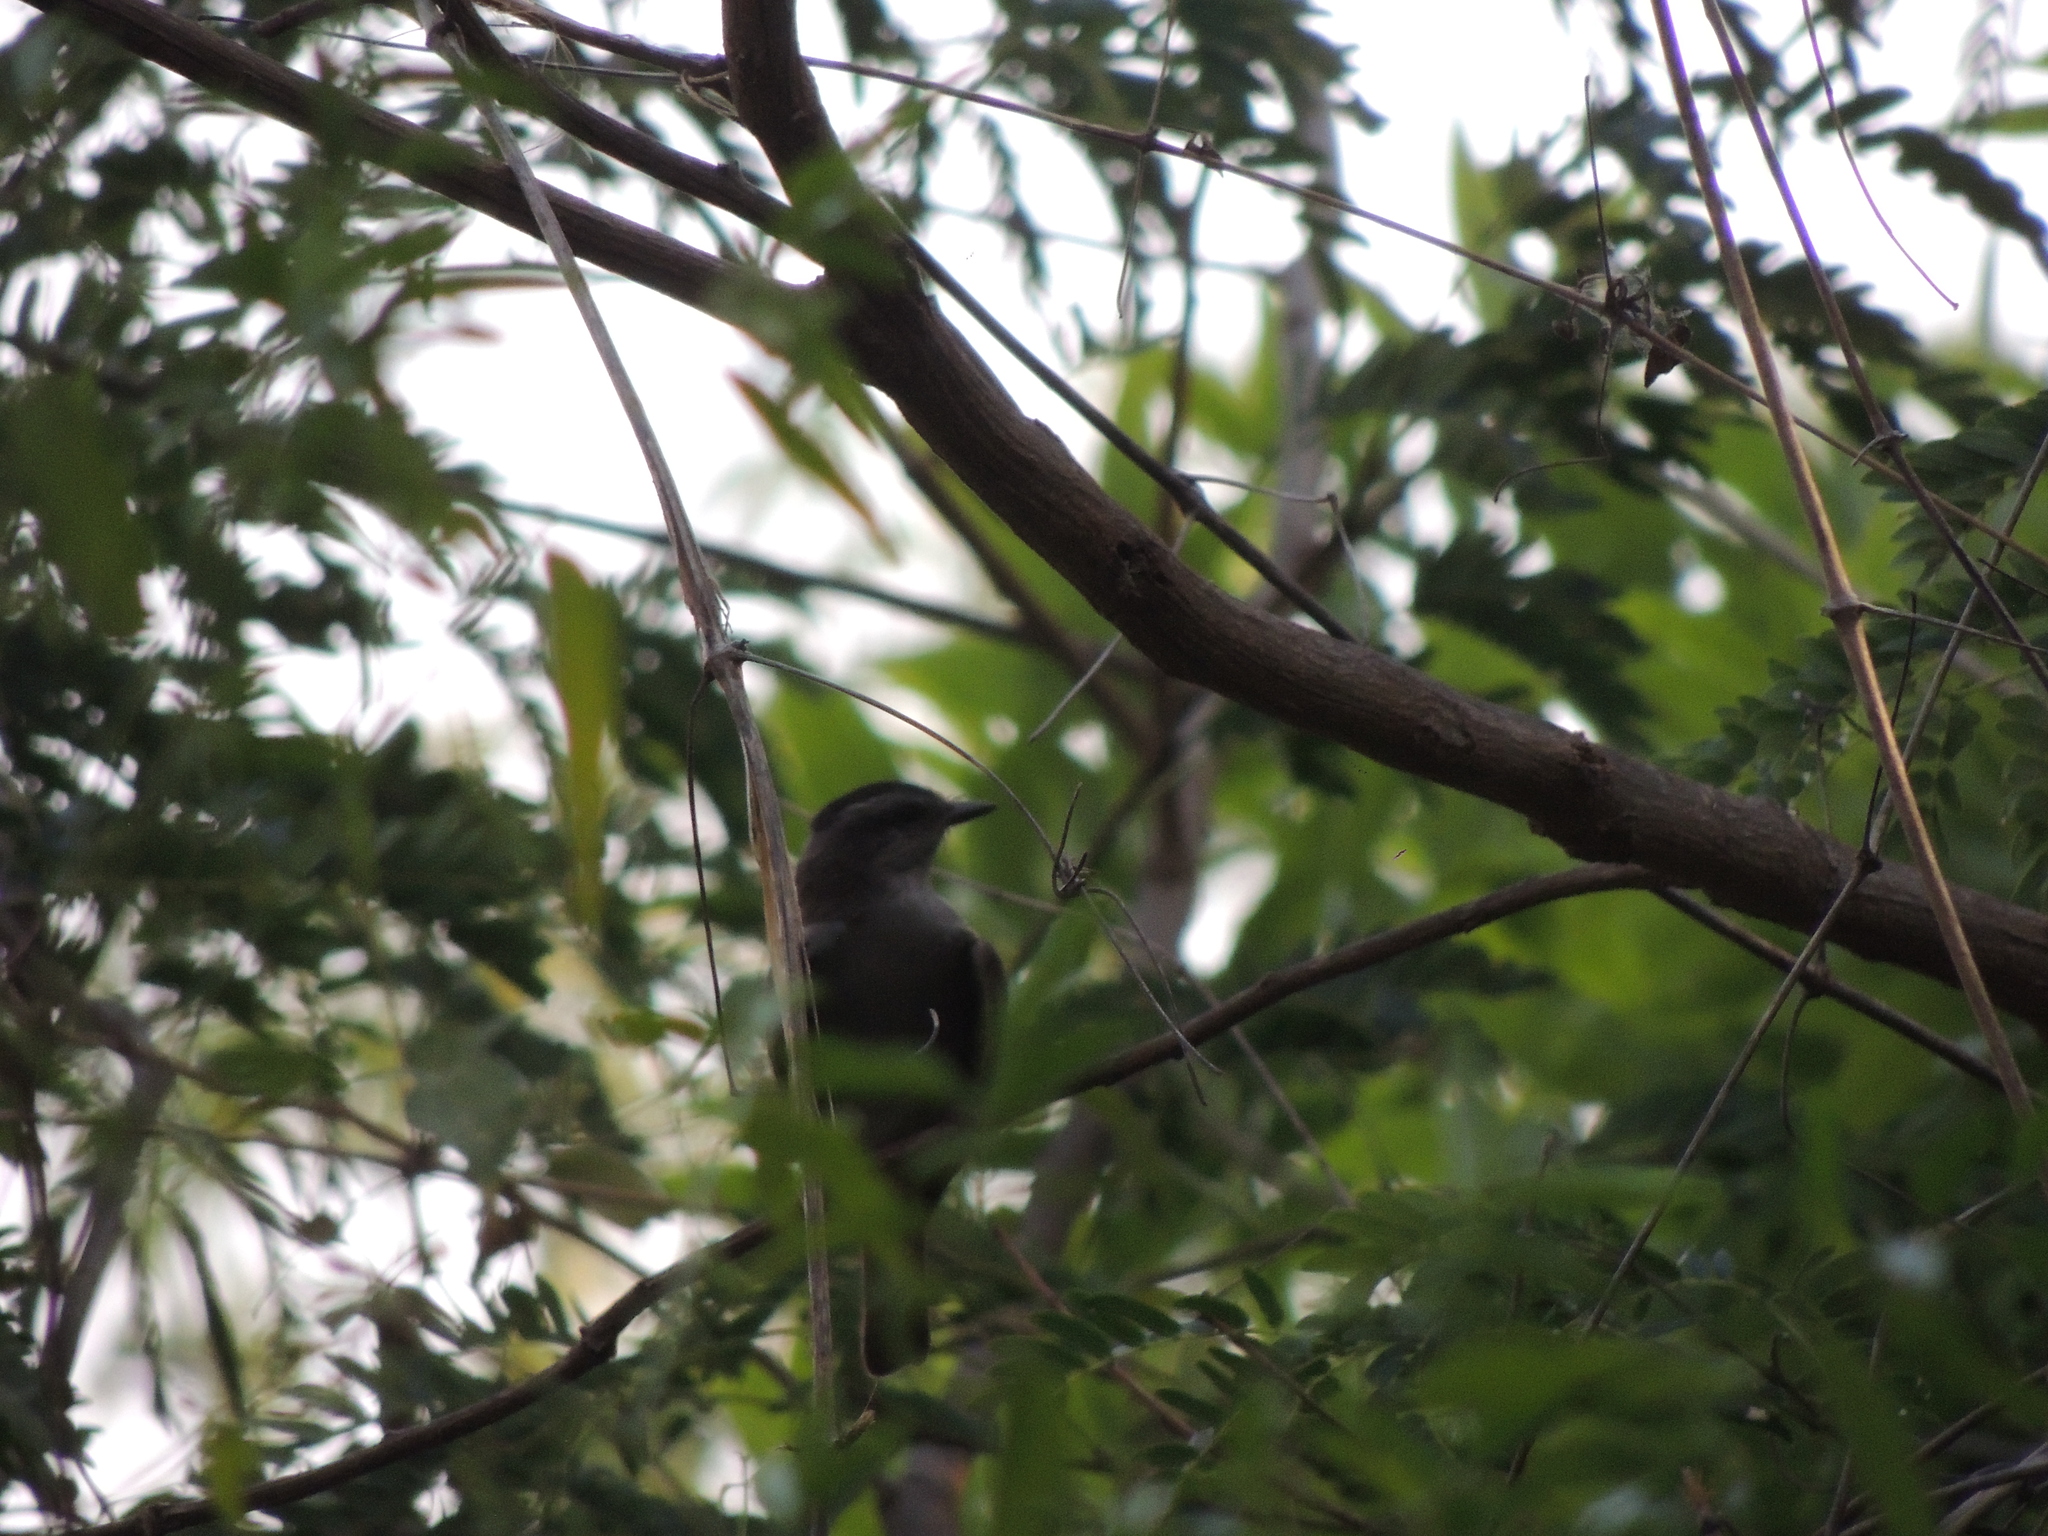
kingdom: Animalia
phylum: Chordata
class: Aves
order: Passeriformes
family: Tyrannidae
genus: Empidonomus
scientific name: Empidonomus aurantioatrocristatus
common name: Crowned slaty flycatcher
